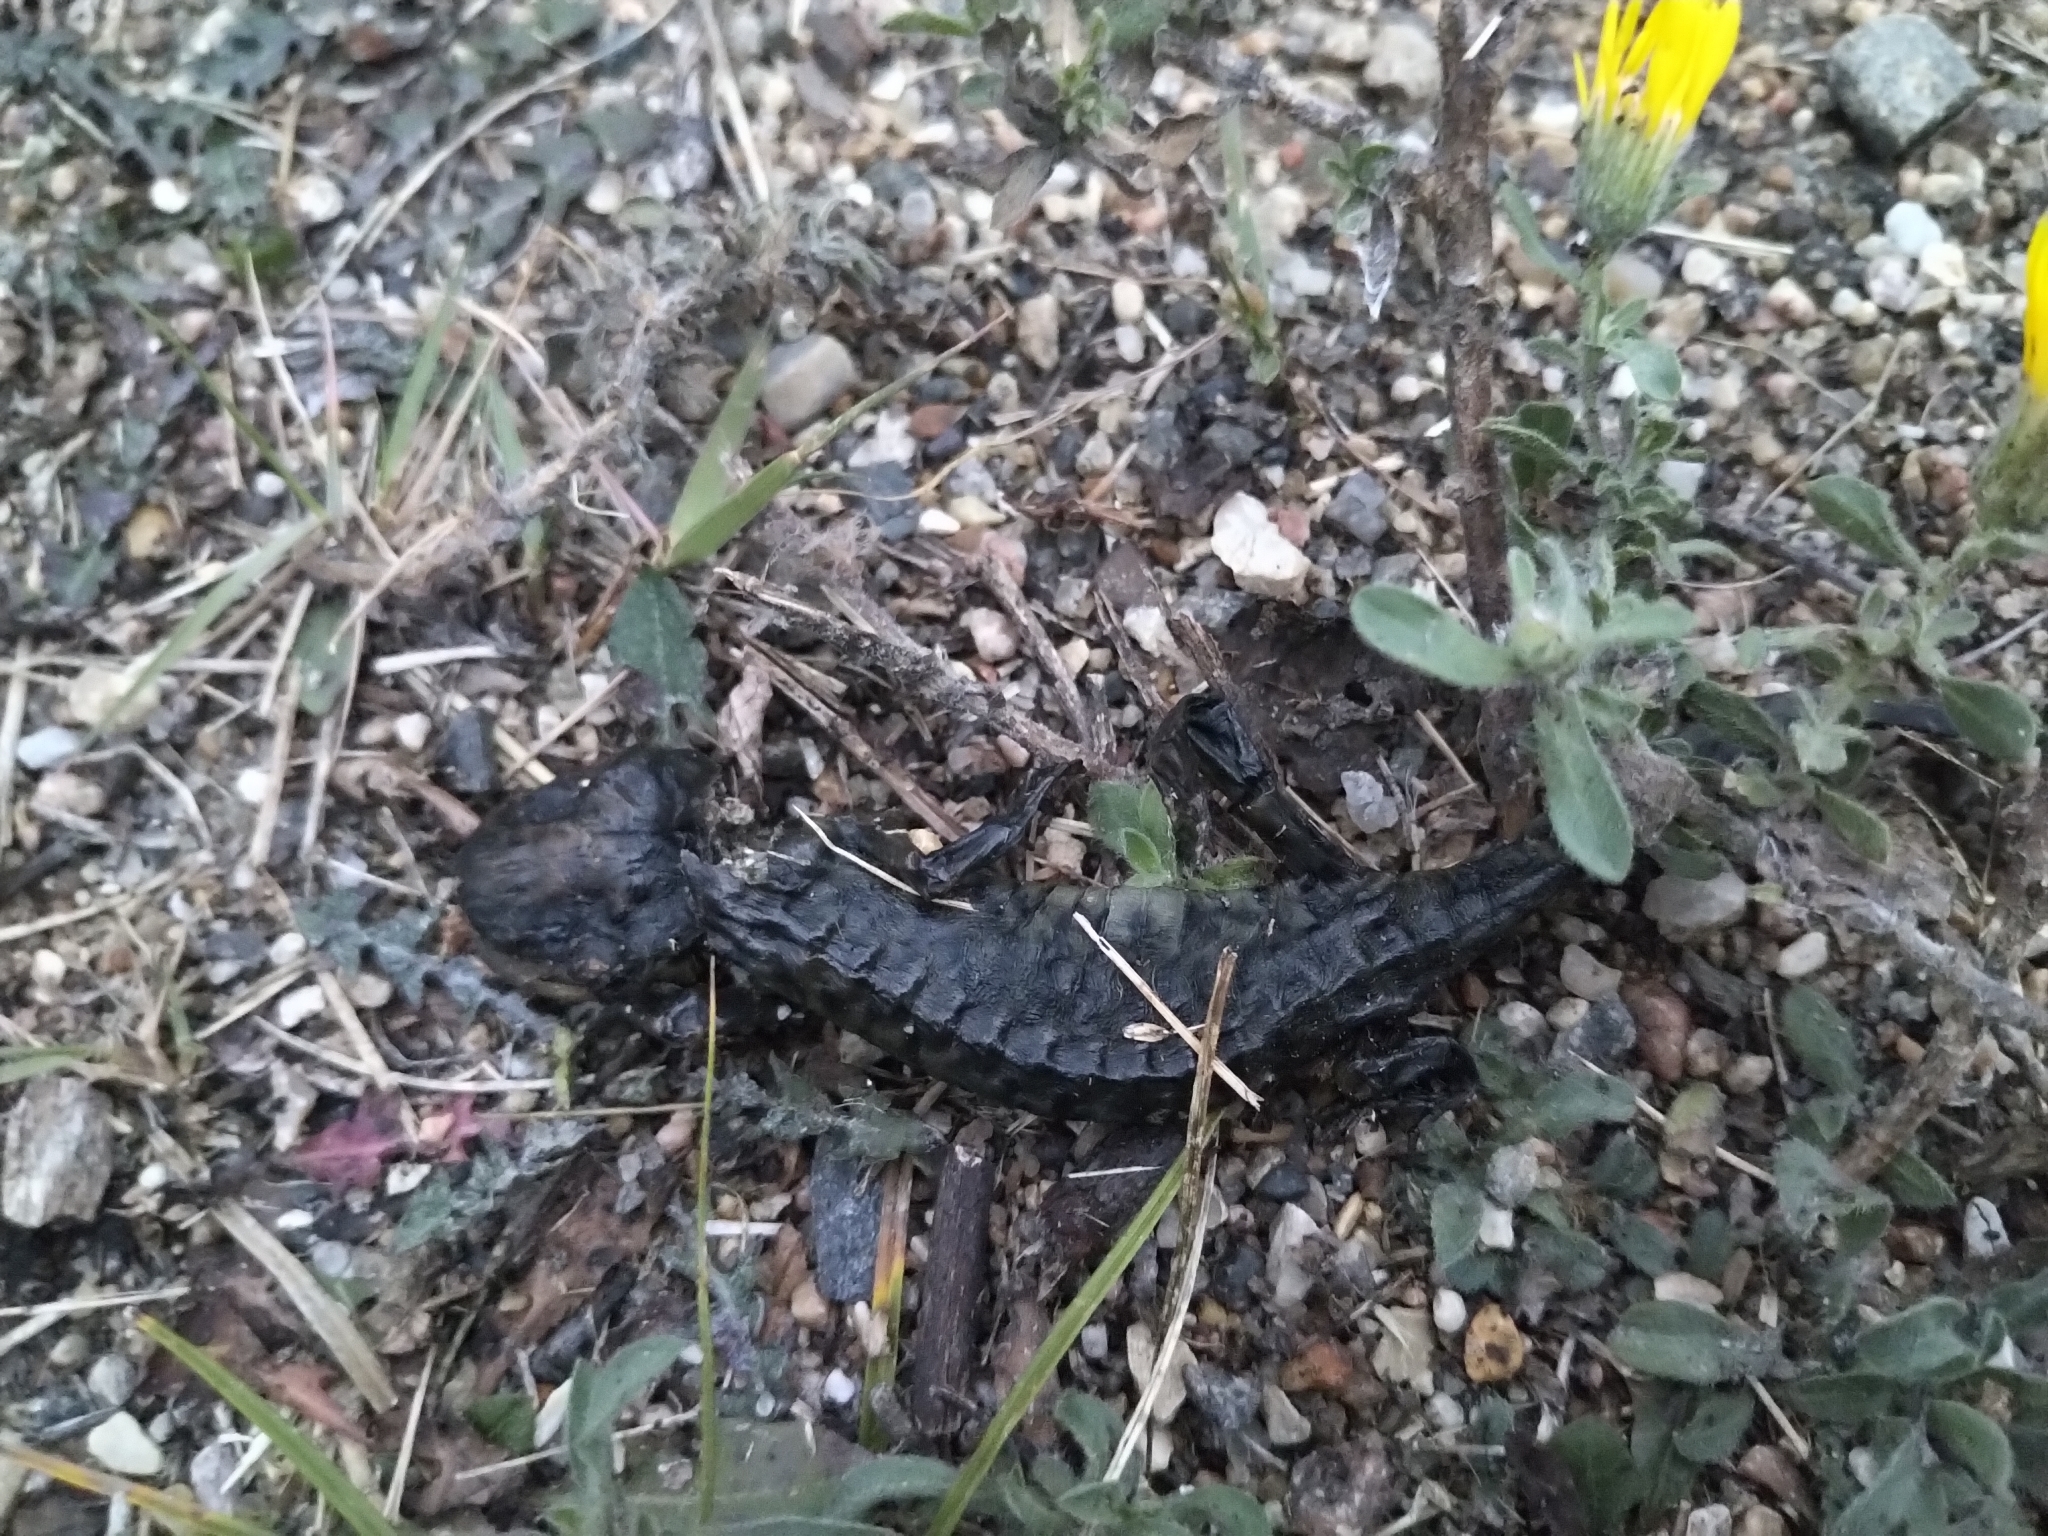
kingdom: Animalia
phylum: Chordata
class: Amphibia
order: Caudata
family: Ambystomatidae
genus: Ambystoma
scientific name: Ambystoma mavortium
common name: Western tiger salamander
